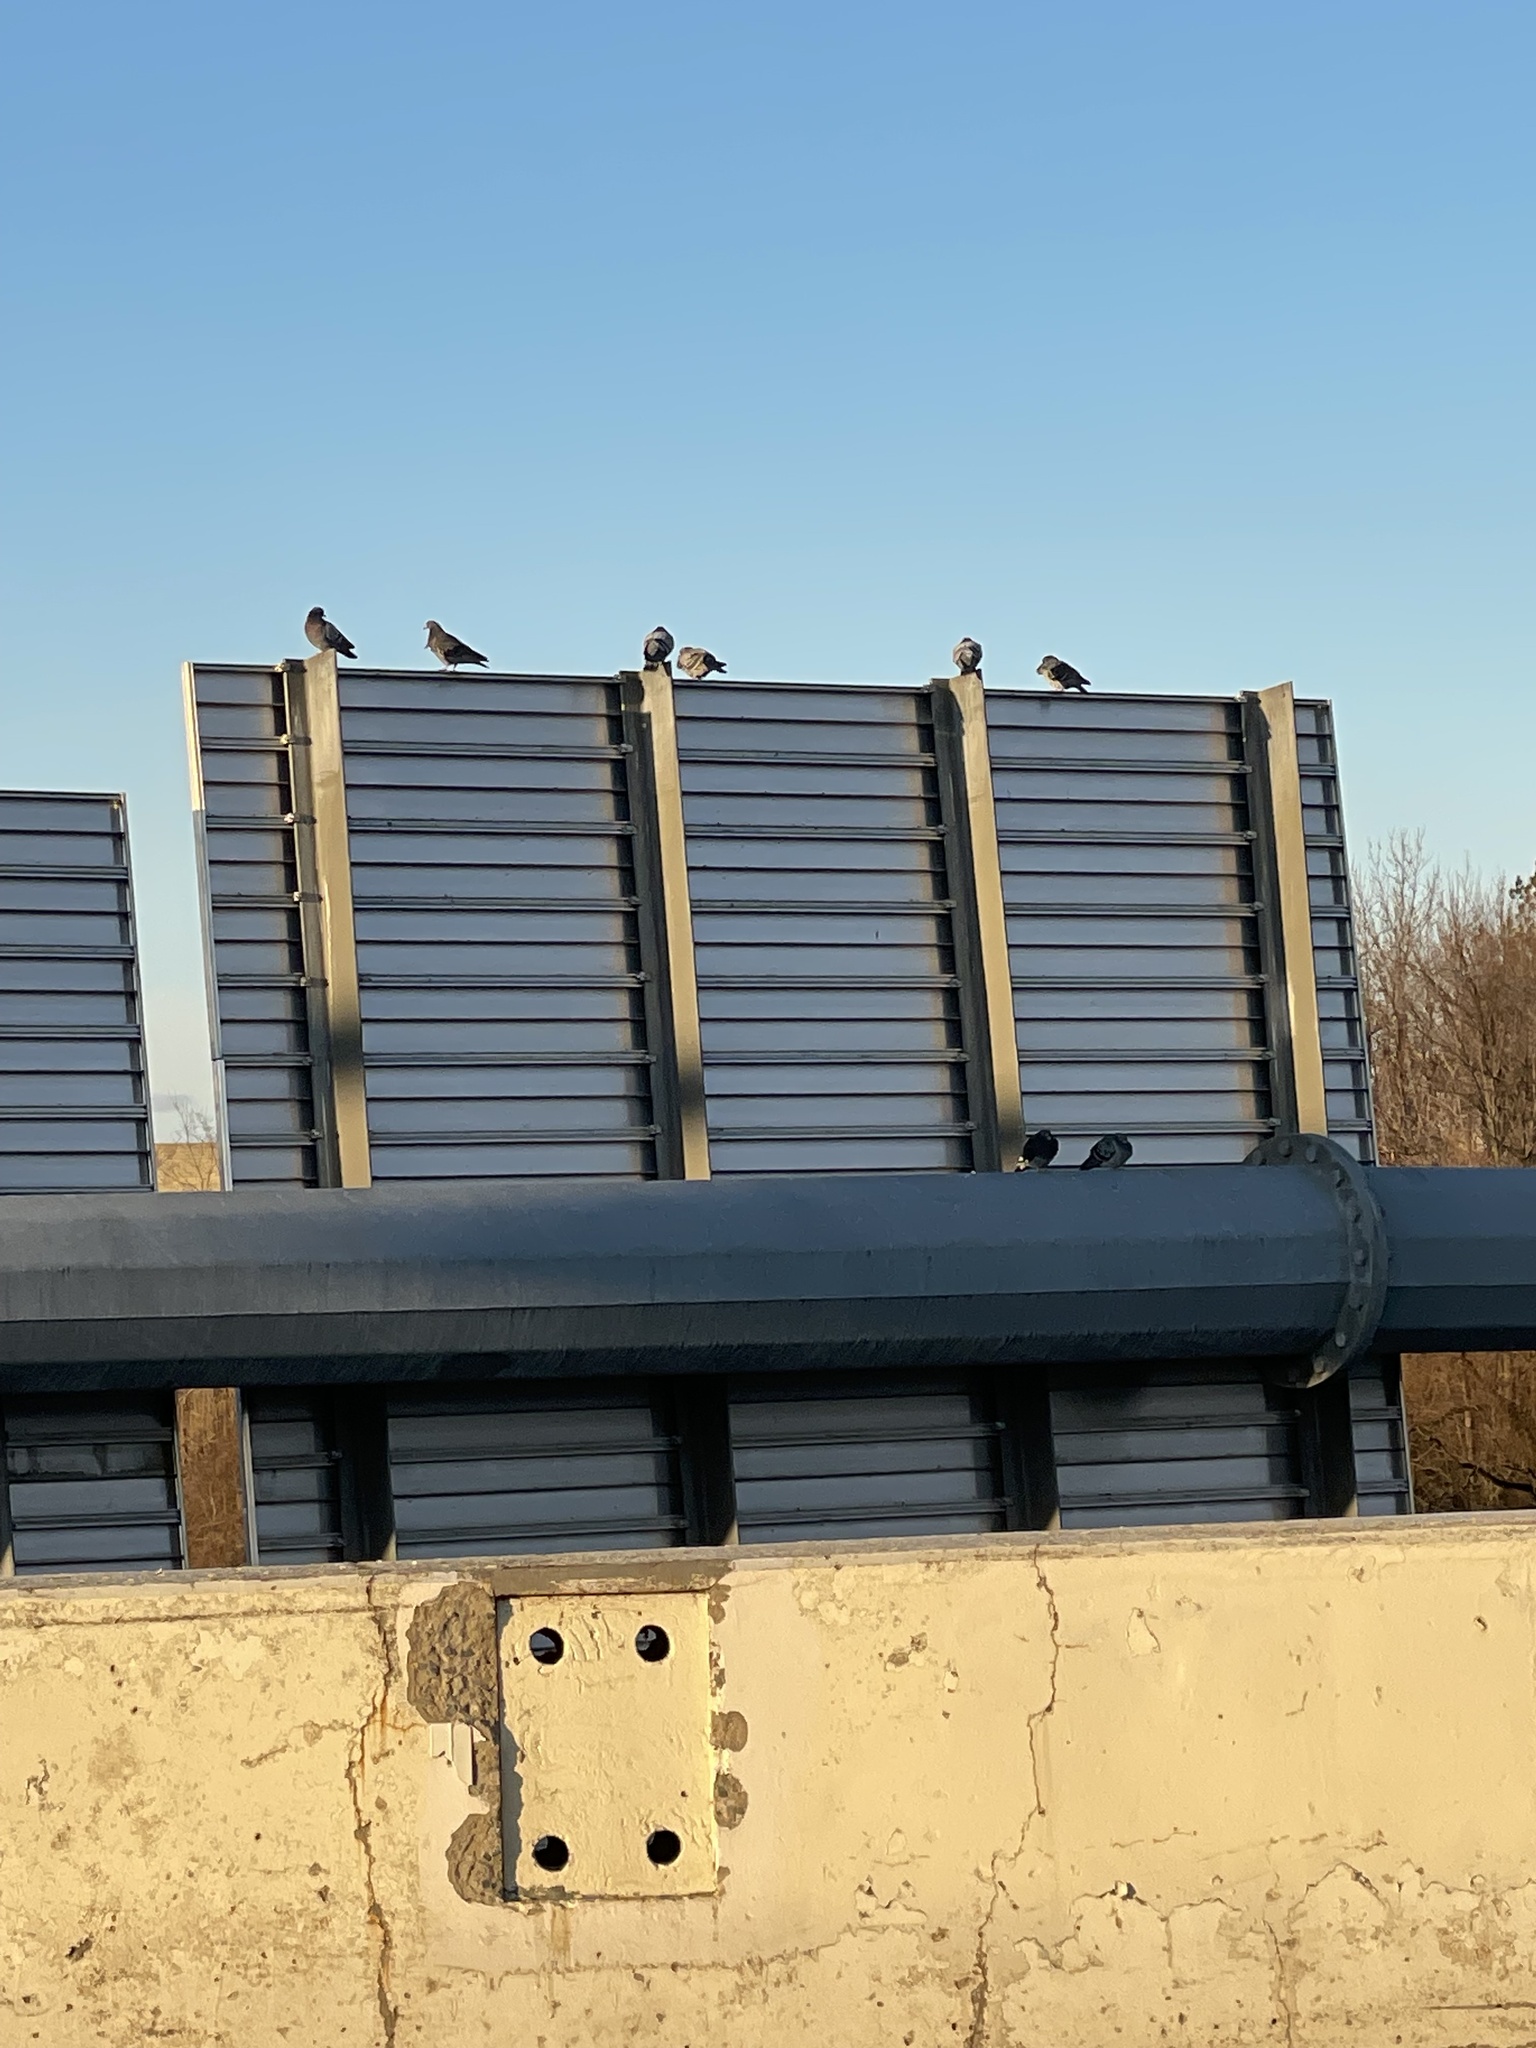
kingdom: Animalia
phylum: Chordata
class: Aves
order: Columbiformes
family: Columbidae
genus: Columba
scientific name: Columba livia
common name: Rock pigeon
